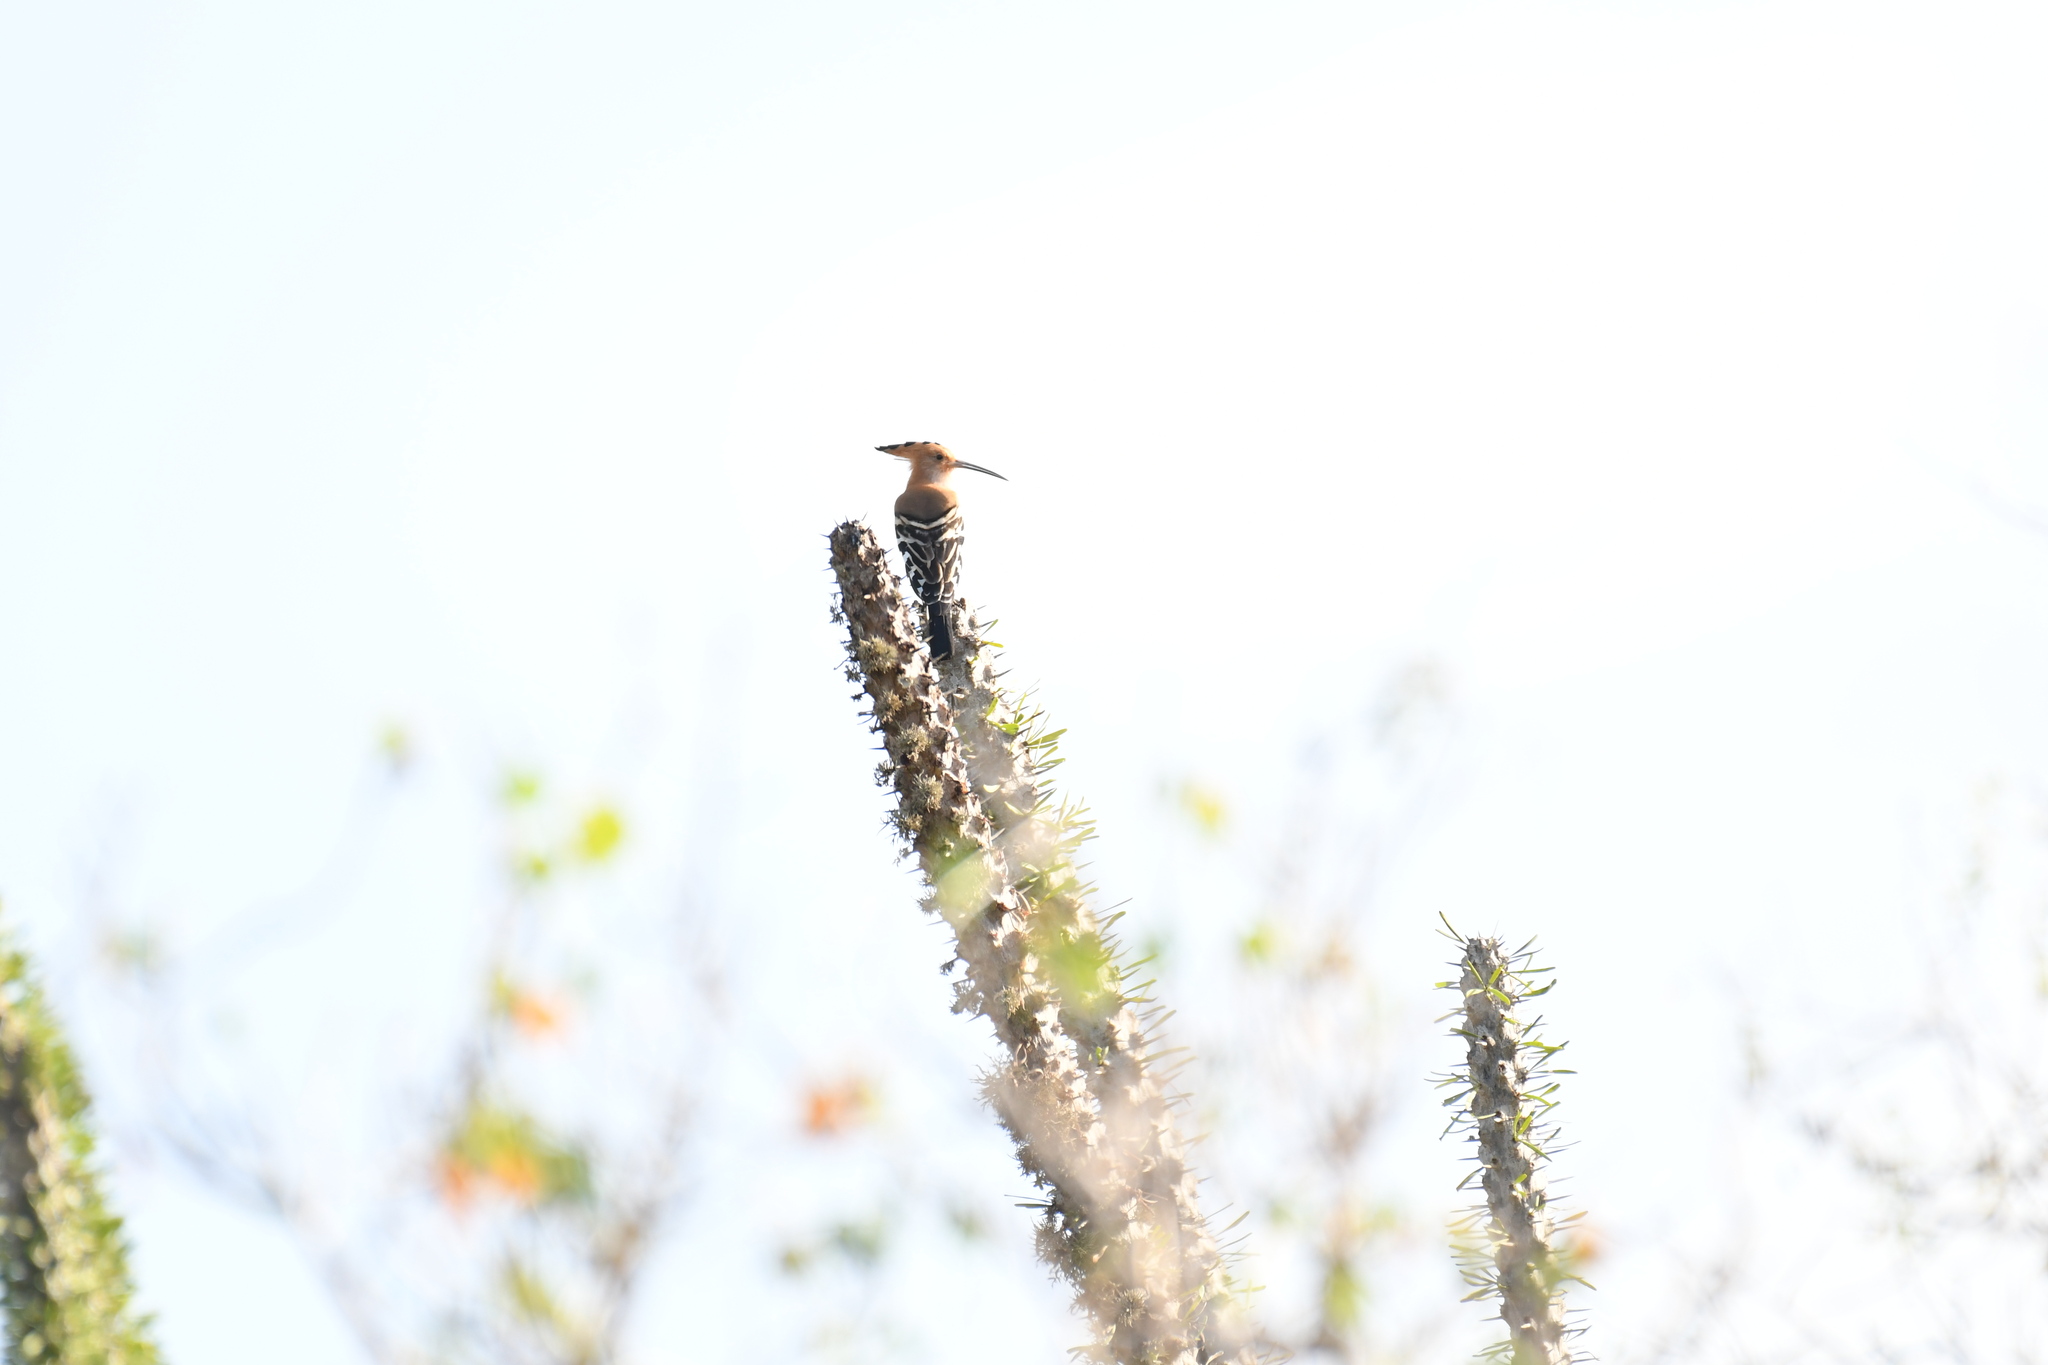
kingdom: Animalia
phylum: Chordata
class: Aves
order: Bucerotiformes
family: Upupidae
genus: Upupa
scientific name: Upupa marginata
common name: Madagascar hoopoe
